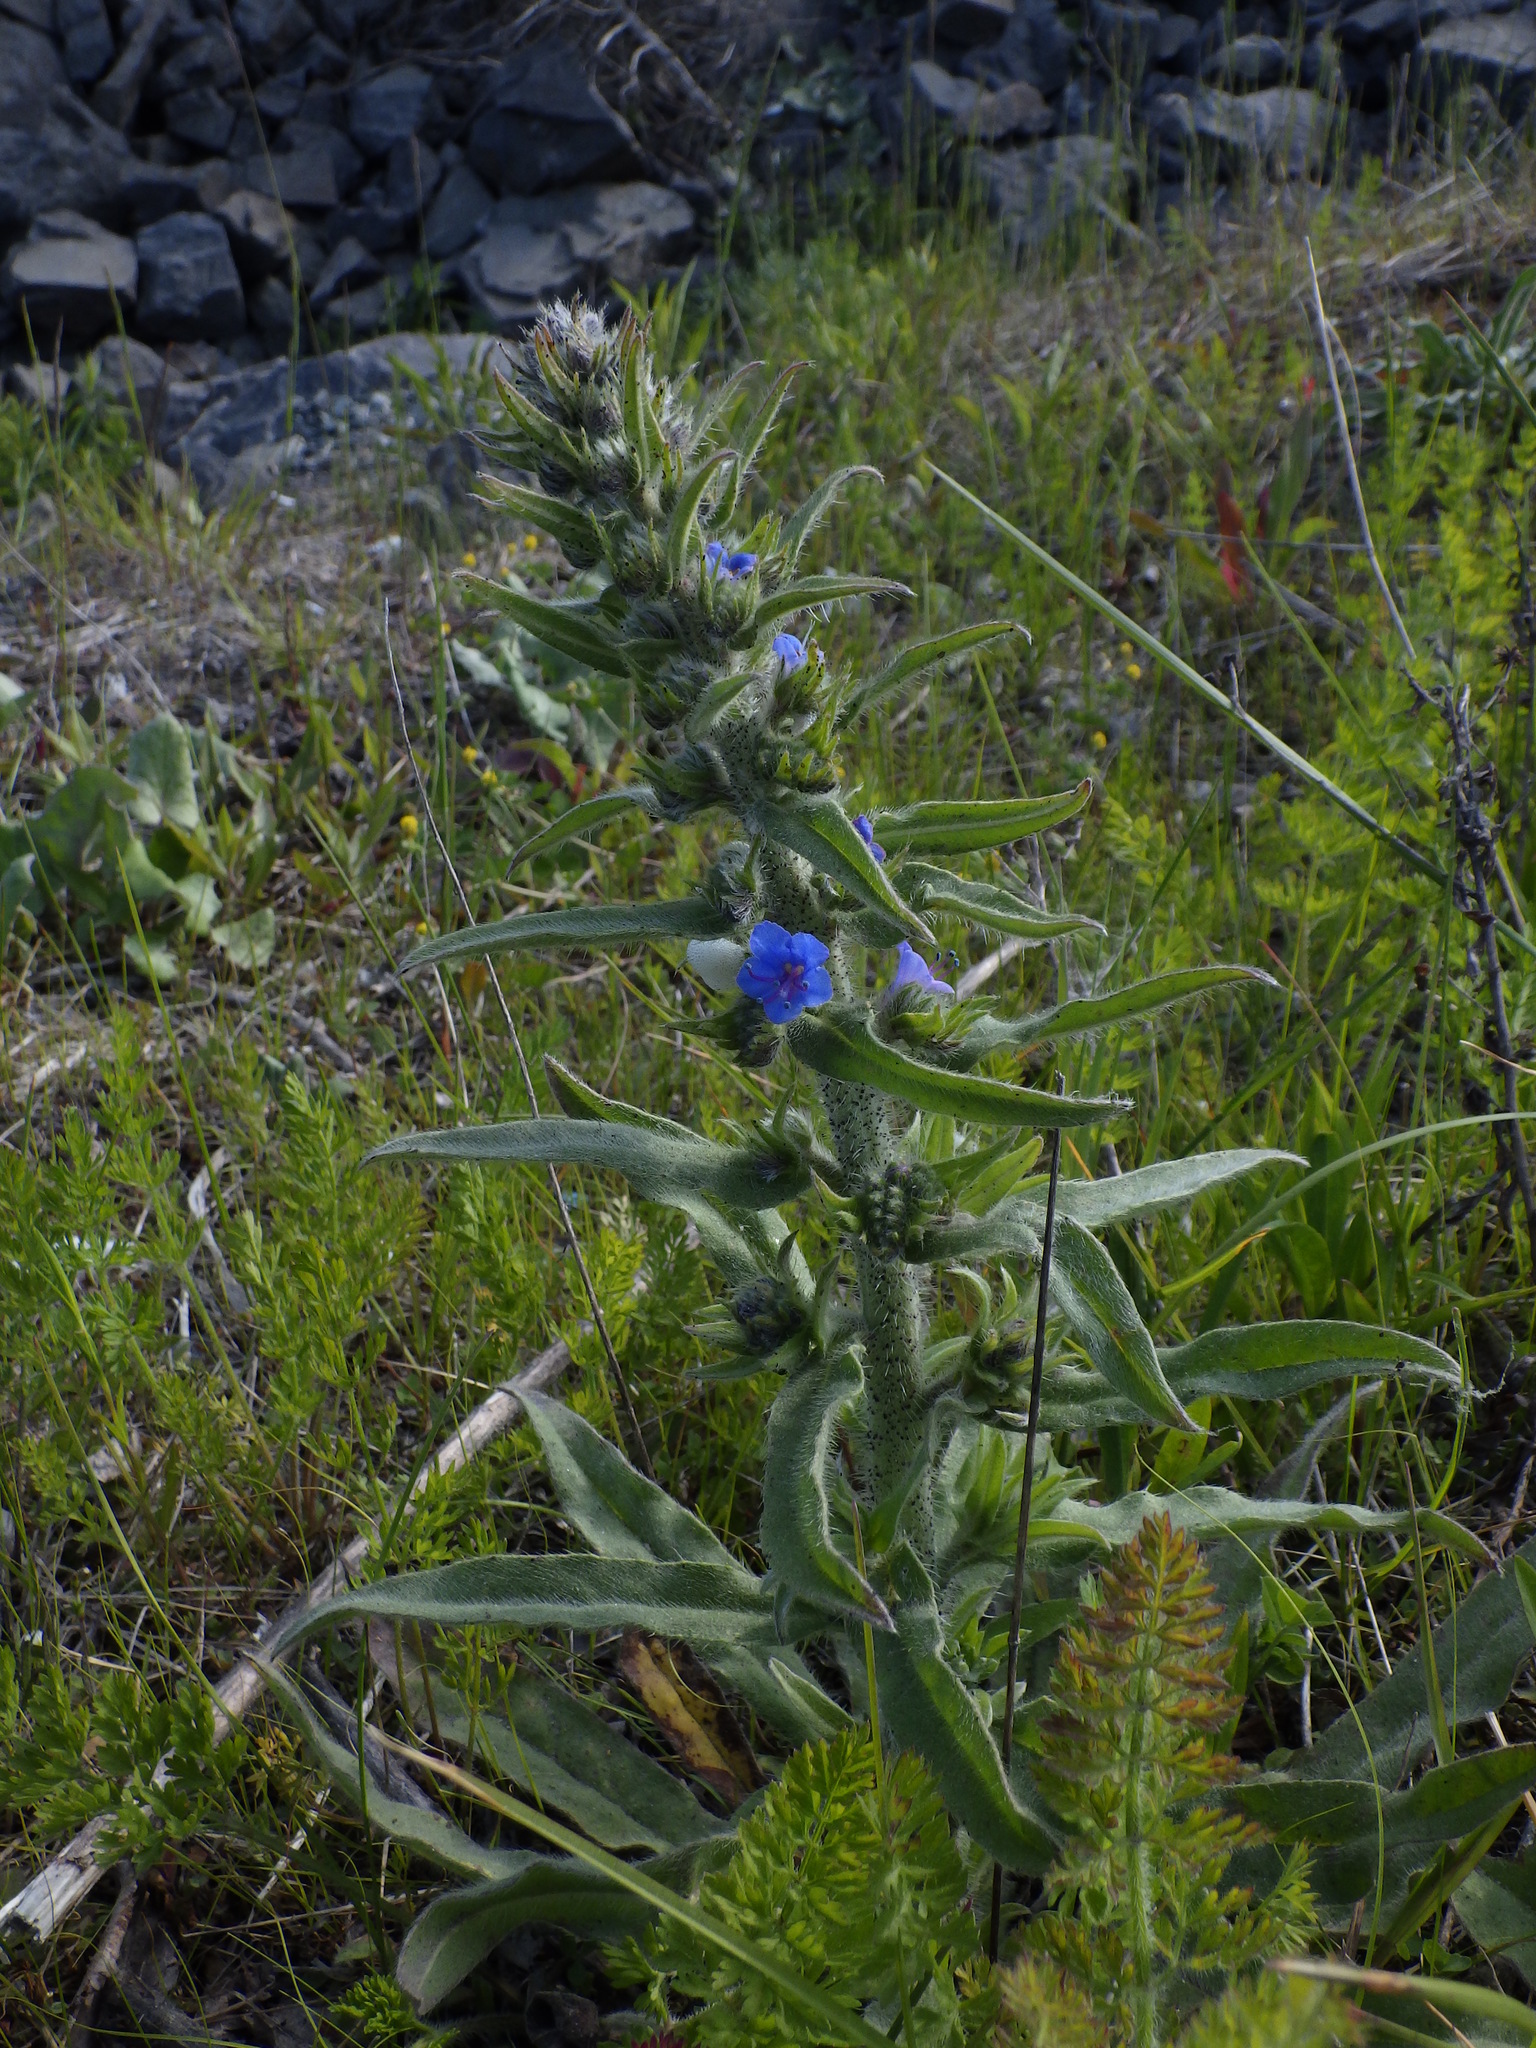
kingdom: Plantae
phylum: Tracheophyta
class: Magnoliopsida
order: Boraginales
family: Boraginaceae
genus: Echium
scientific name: Echium vulgare
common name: Common viper's bugloss
